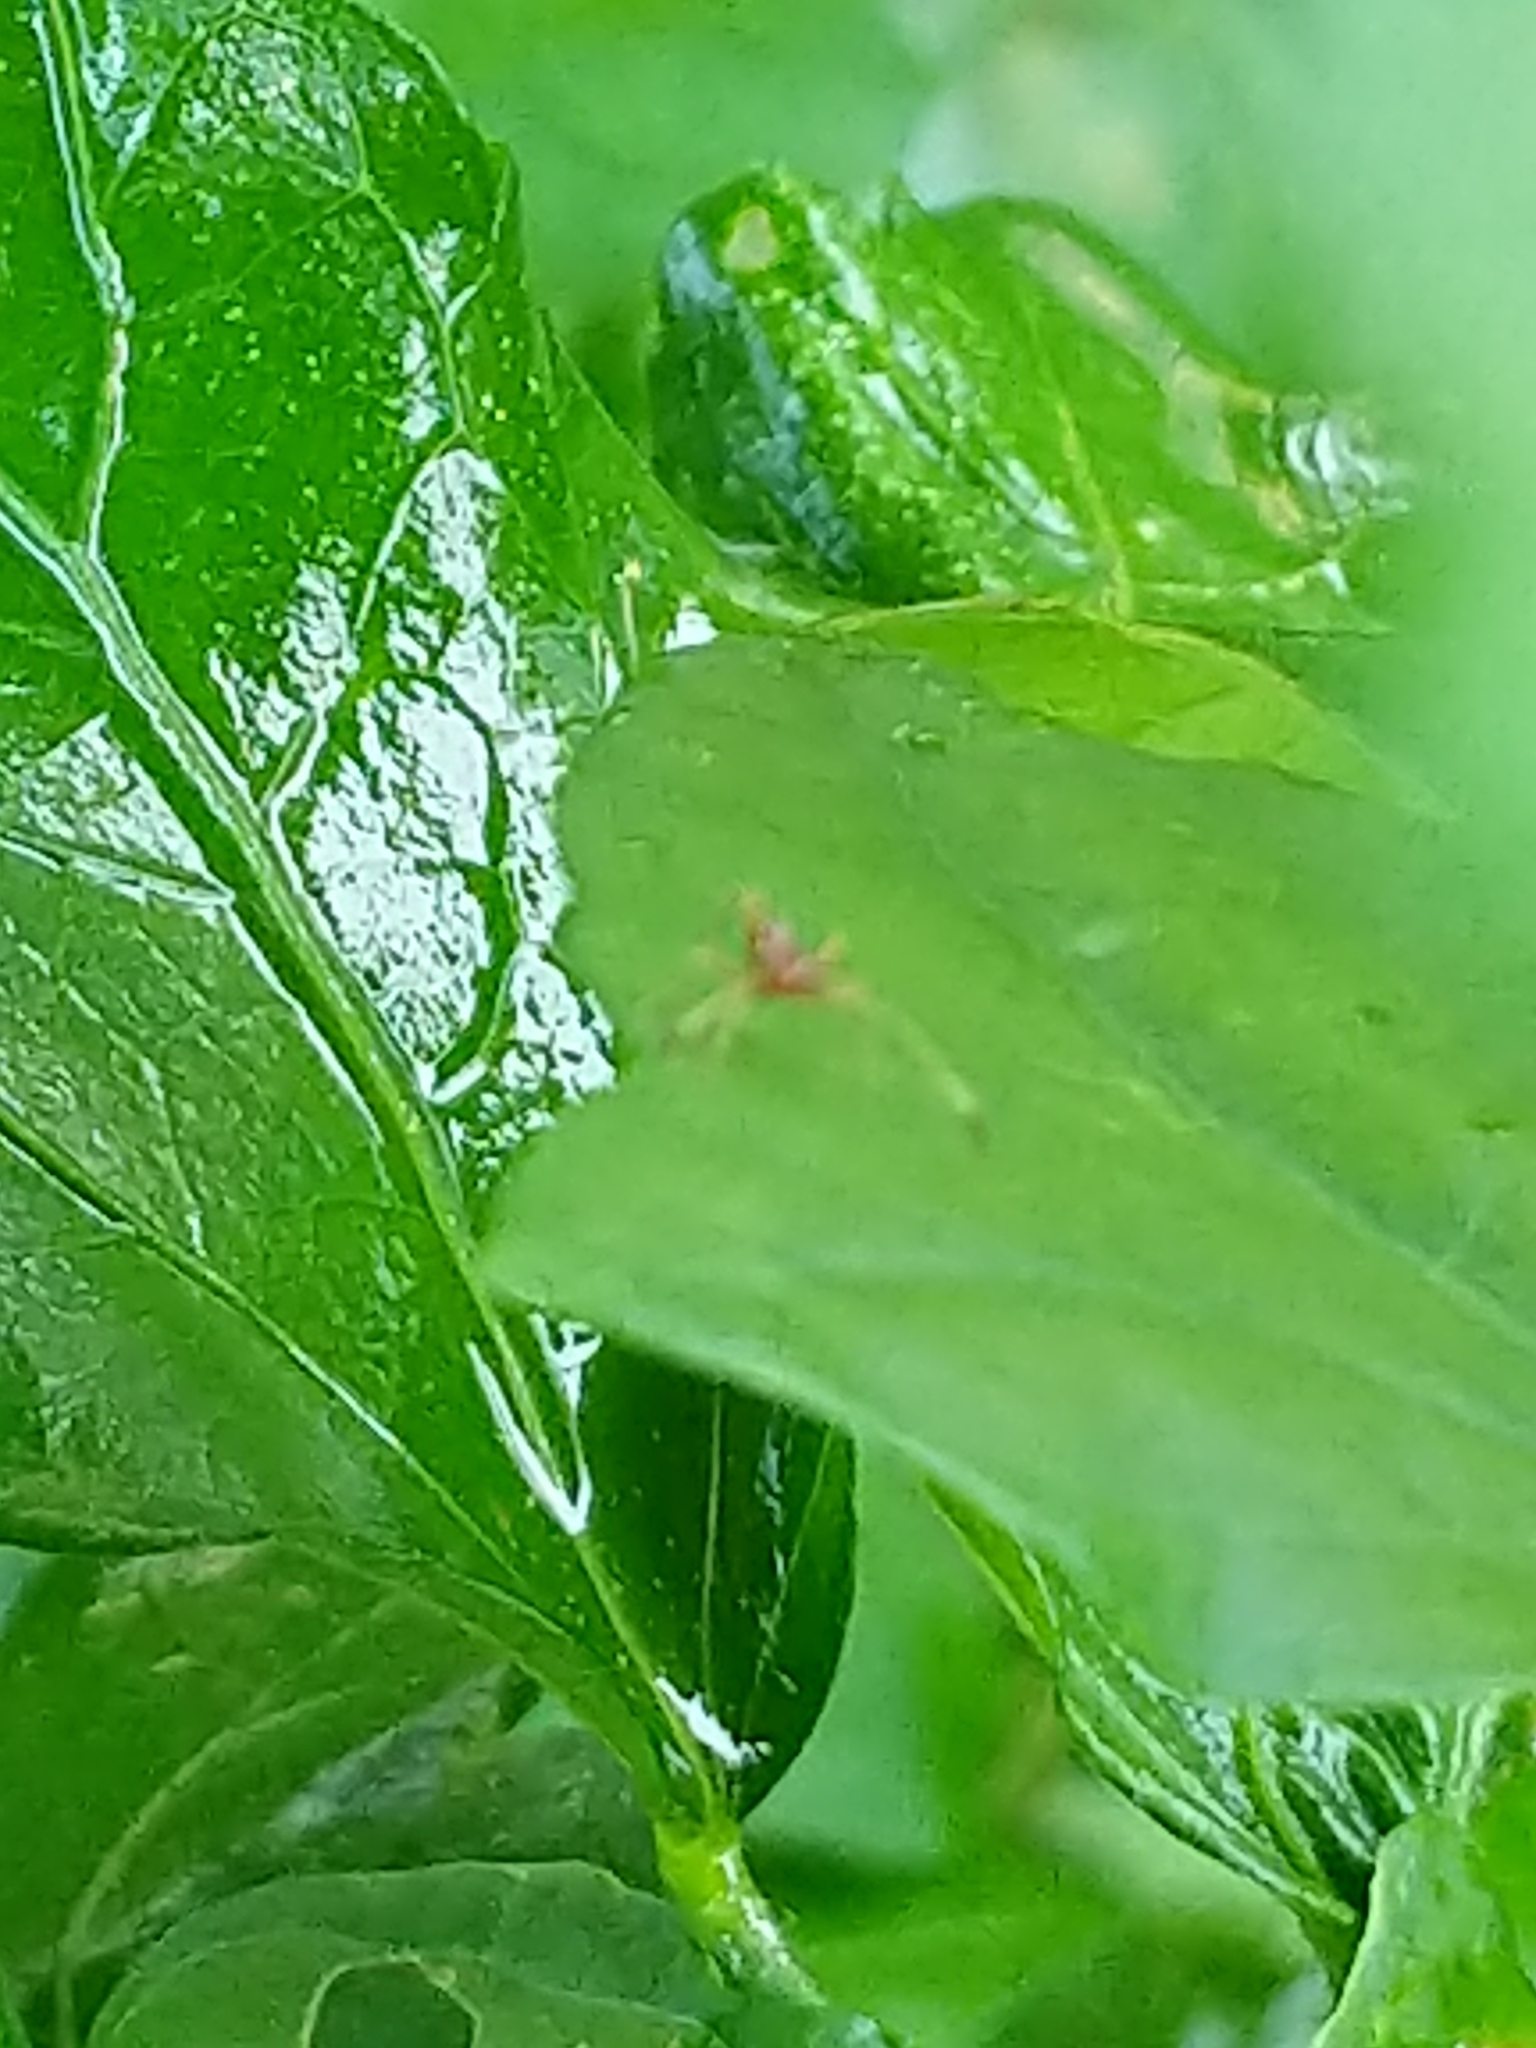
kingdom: Animalia
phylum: Arthropoda
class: Insecta
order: Hemiptera
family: Miridae
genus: Paraxenetus
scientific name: Paraxenetus guttulatus
